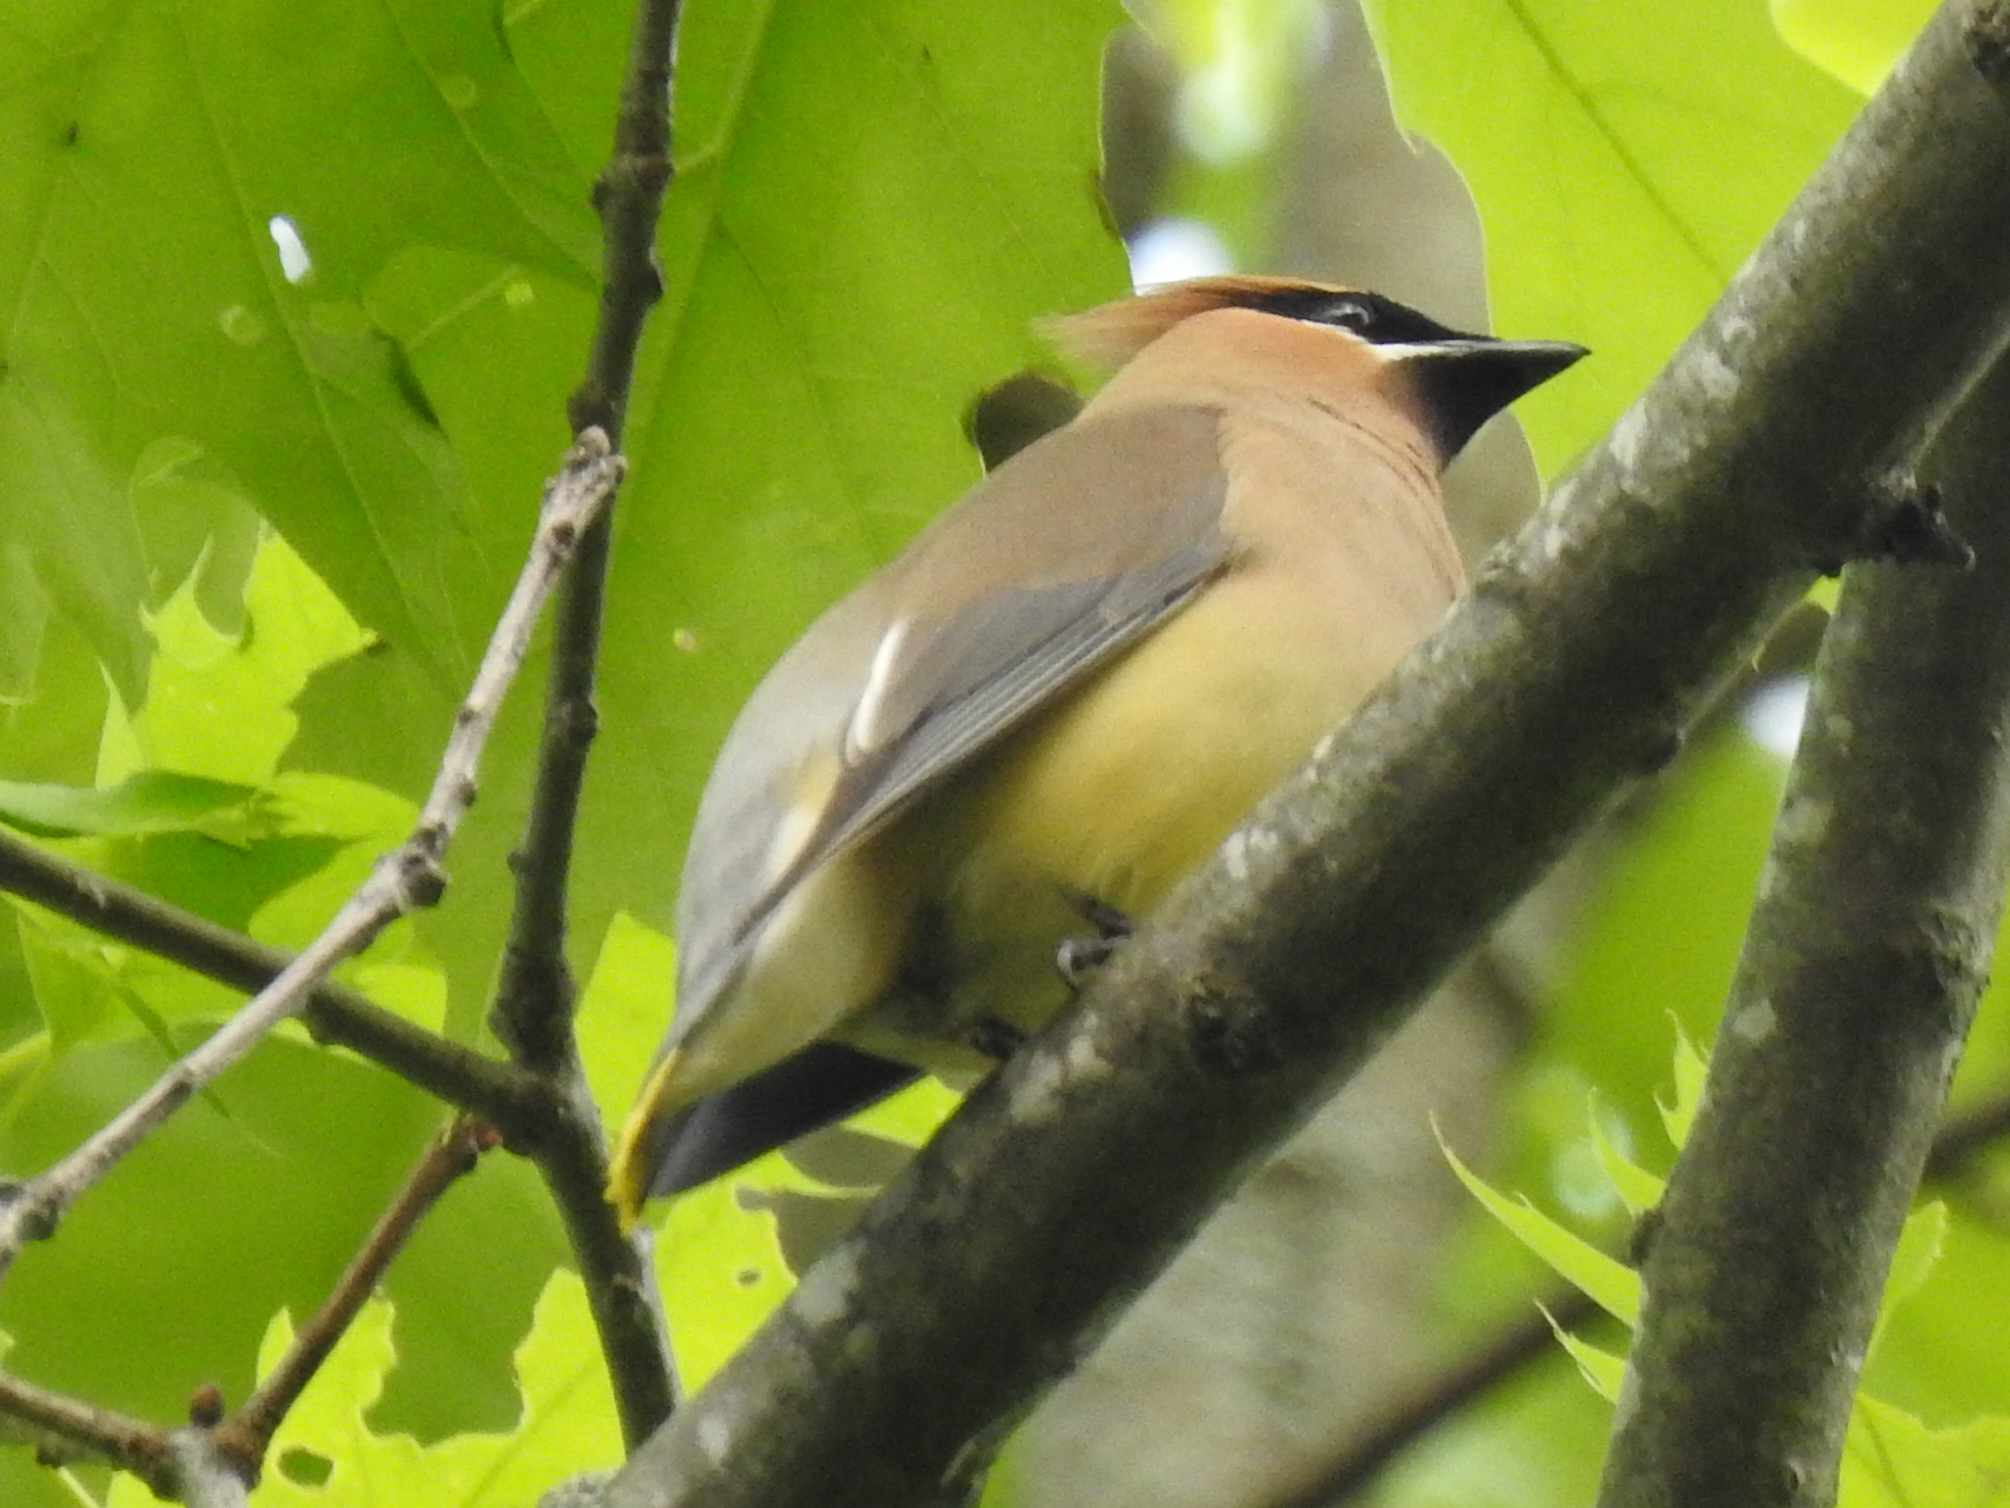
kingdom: Animalia
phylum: Chordata
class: Aves
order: Passeriformes
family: Bombycillidae
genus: Bombycilla
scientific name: Bombycilla cedrorum
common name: Cedar waxwing
